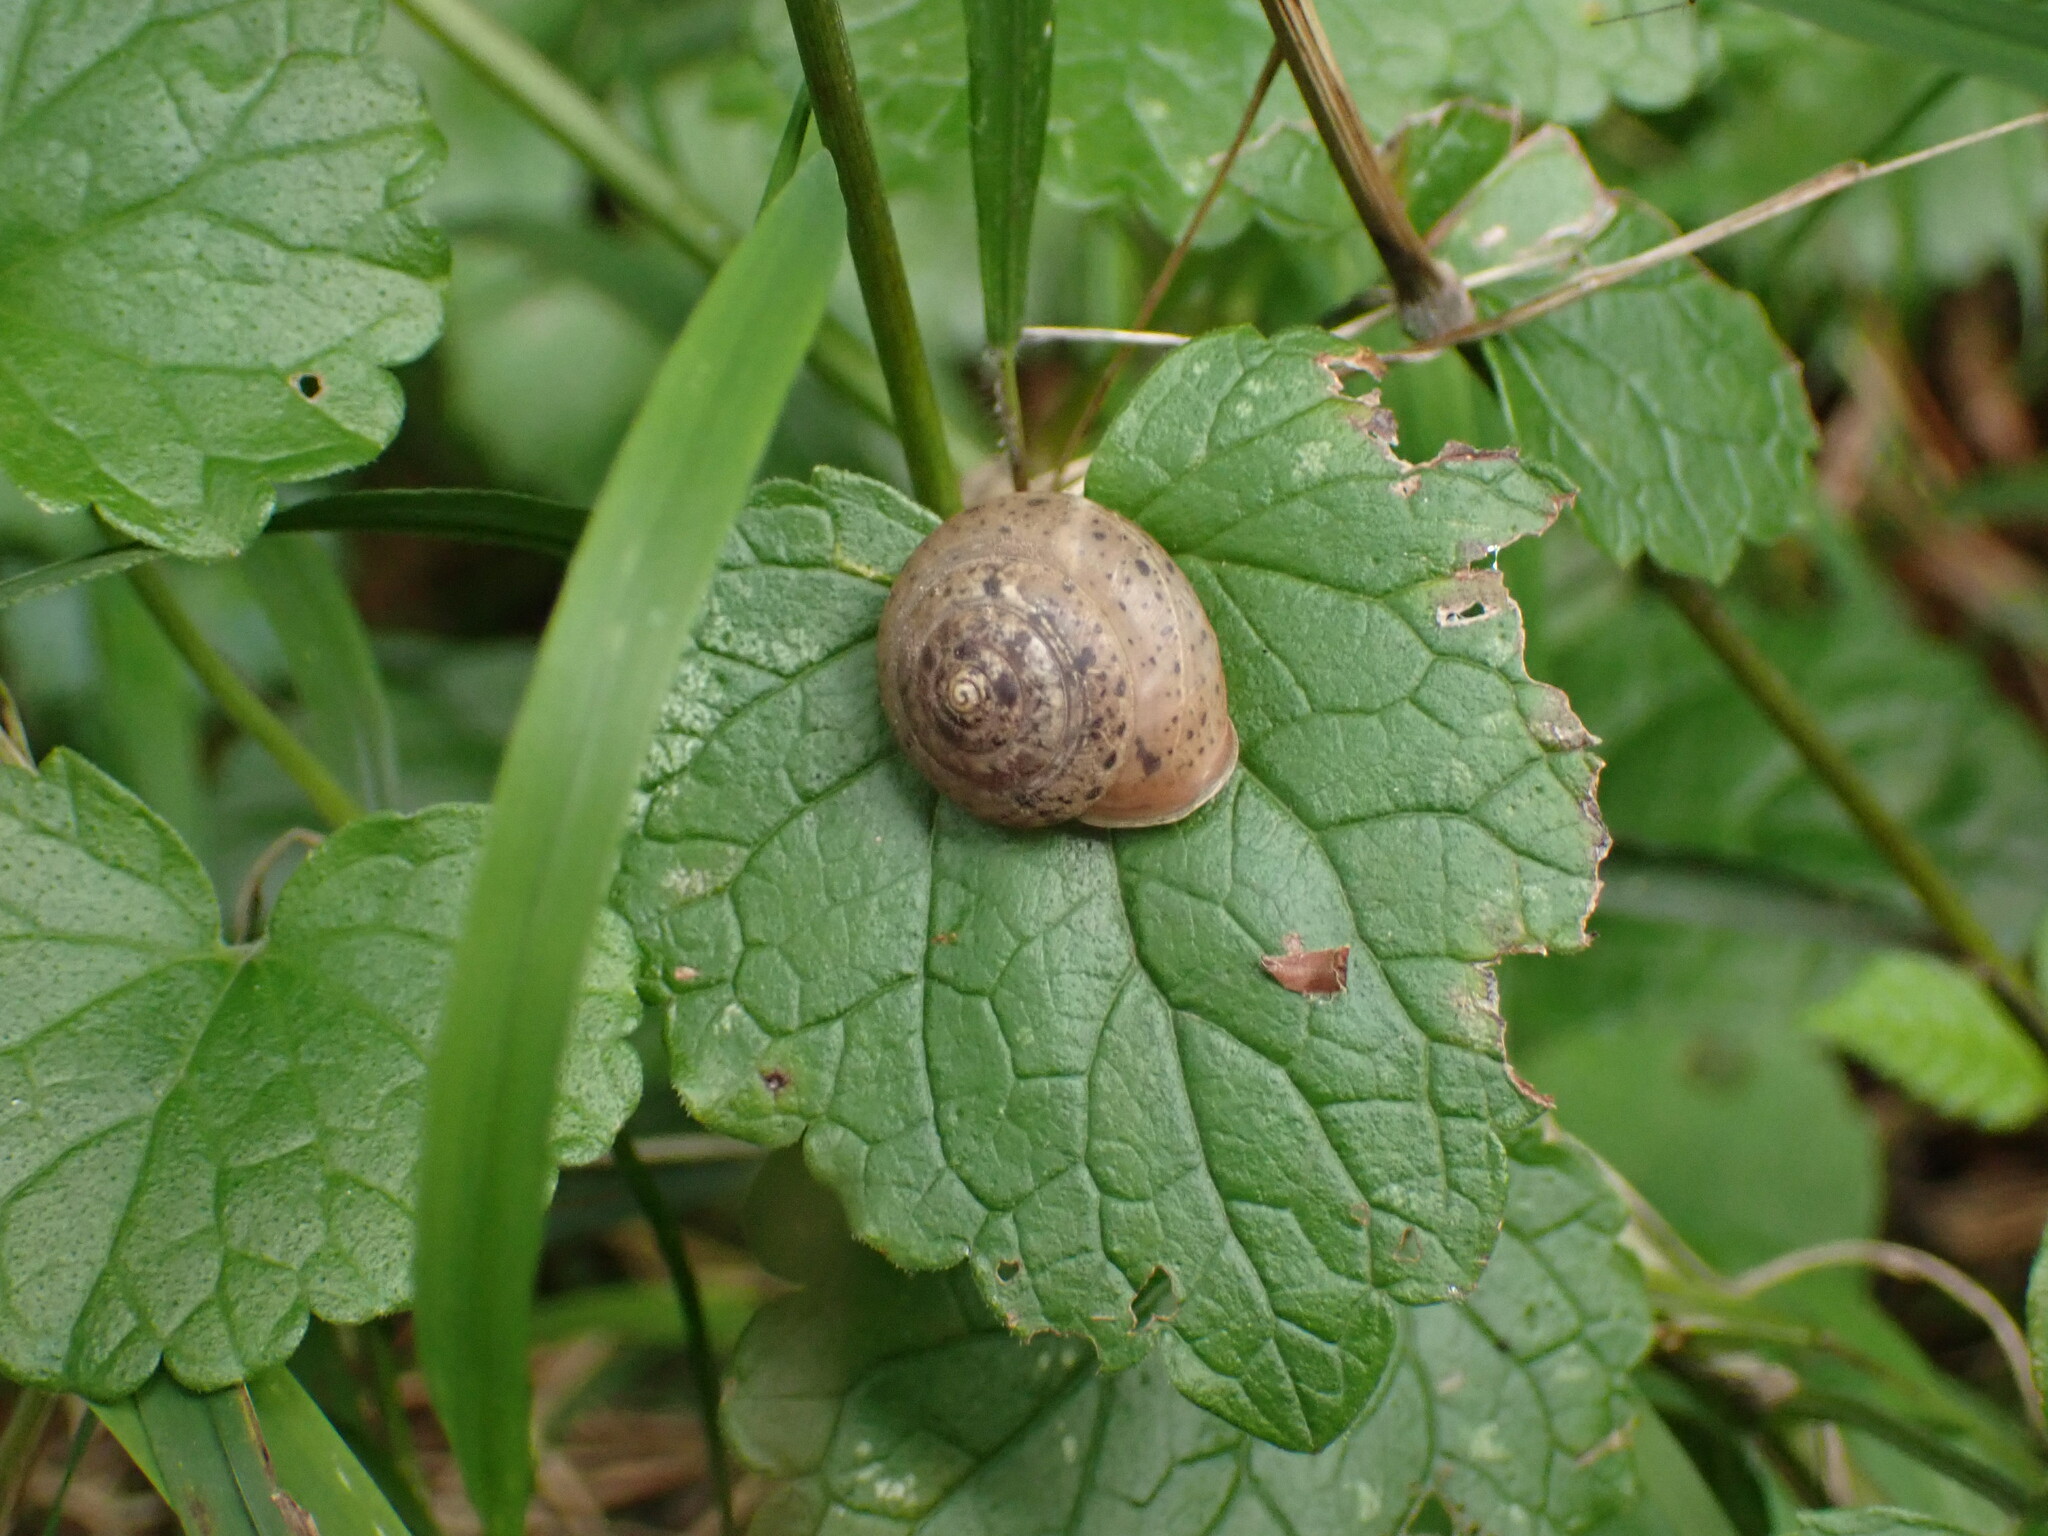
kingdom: Animalia
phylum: Mollusca
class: Gastropoda
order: Stylommatophora
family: Hygromiidae
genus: Monachoides
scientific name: Monachoides incarnatus
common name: Incarnate snail
